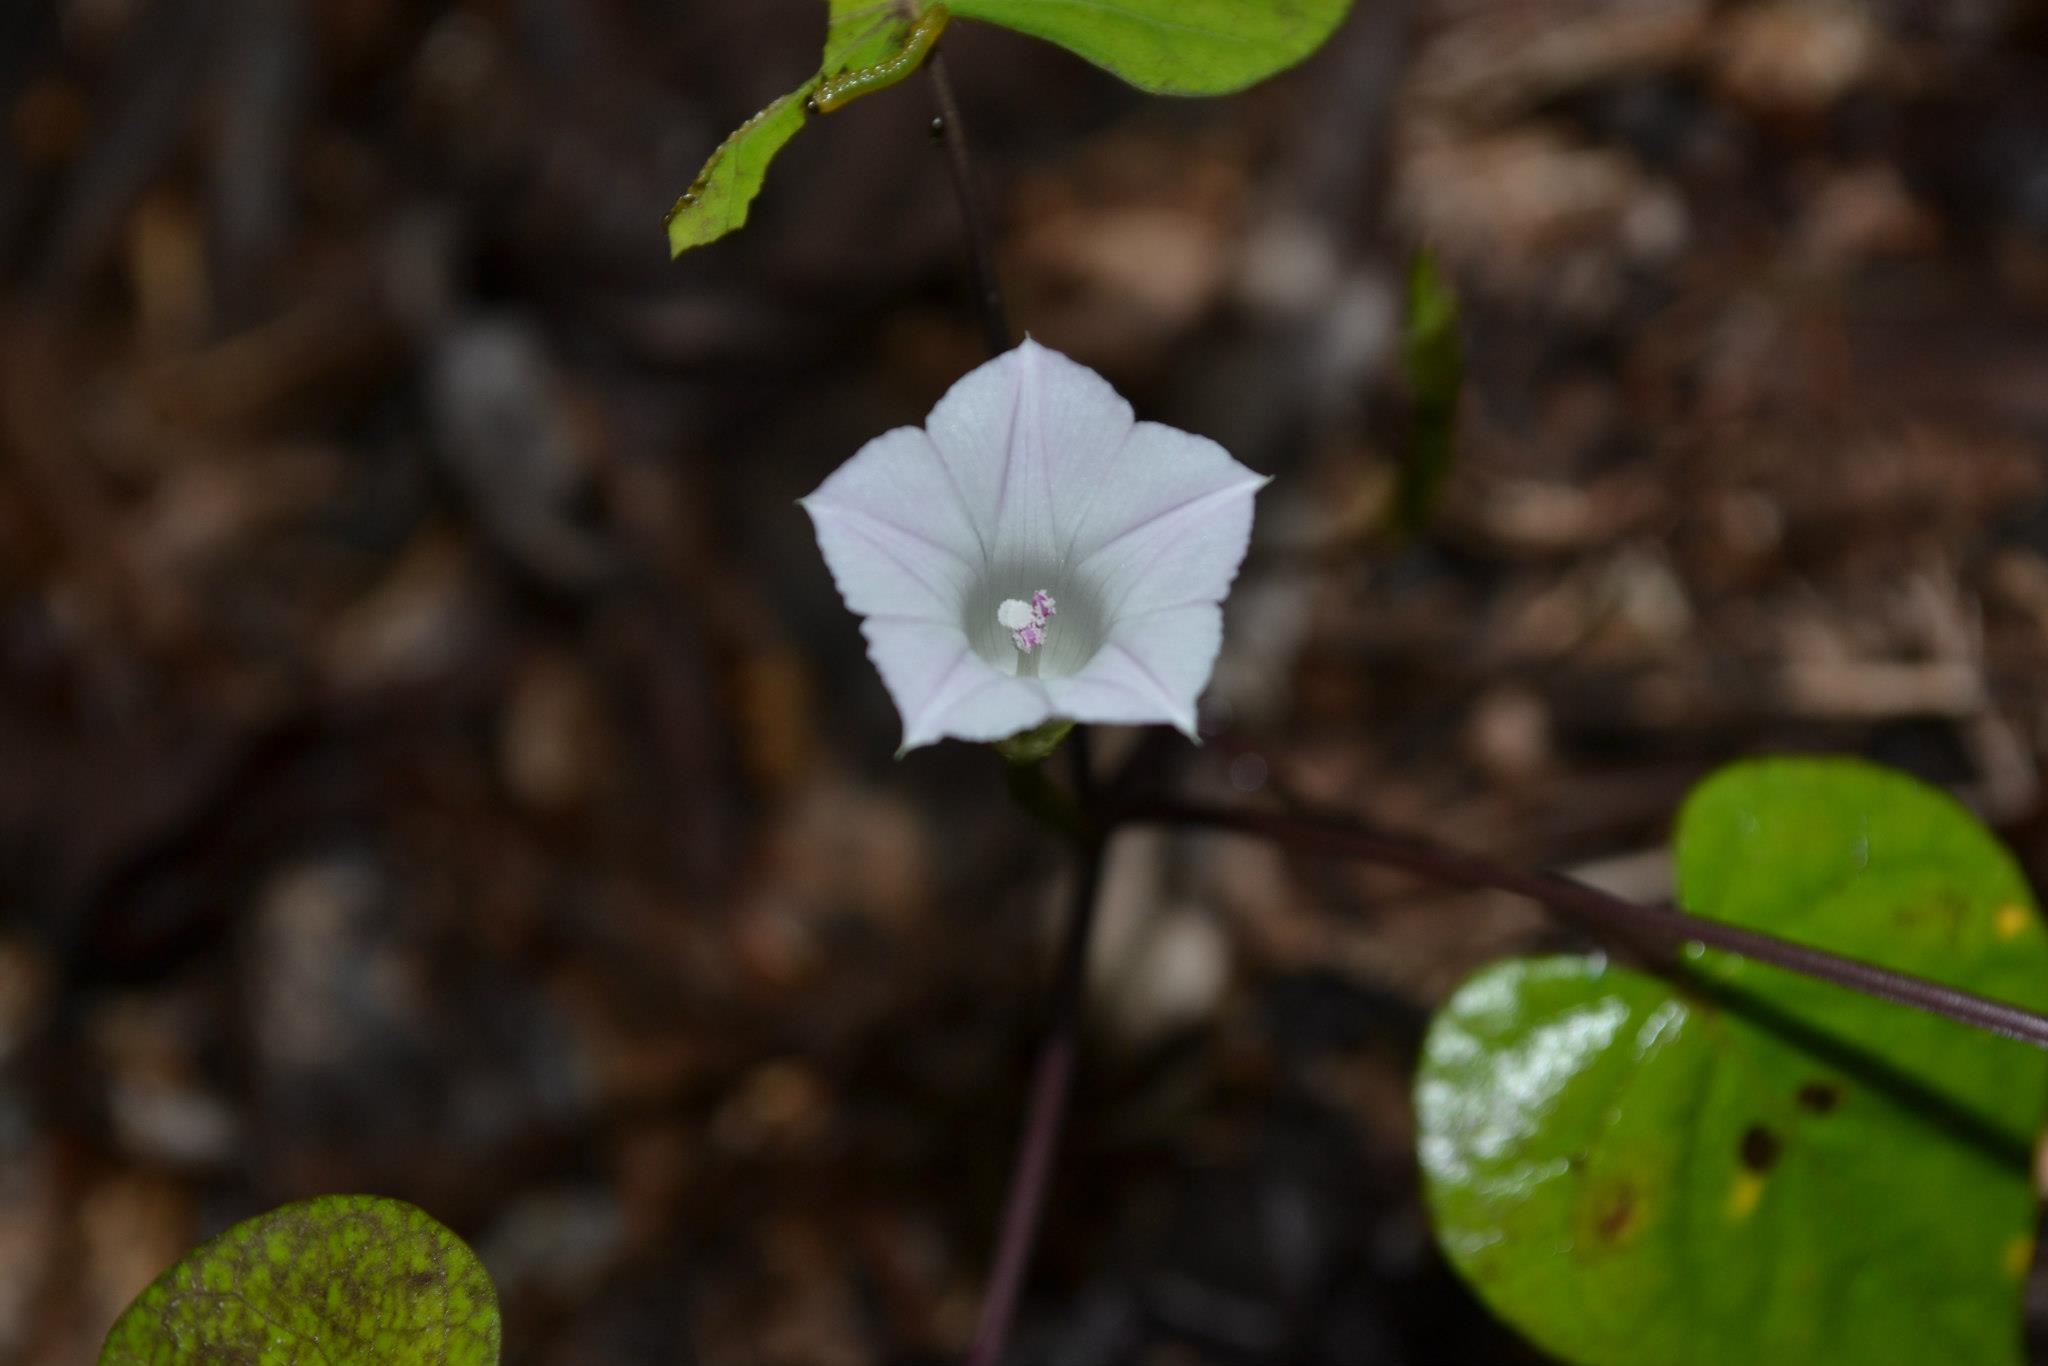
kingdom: Plantae
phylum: Tracheophyta
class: Magnoliopsida
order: Solanales
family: Convolvulaceae
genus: Ipomoea
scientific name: Ipomoea lacunosa
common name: White morning-glory
